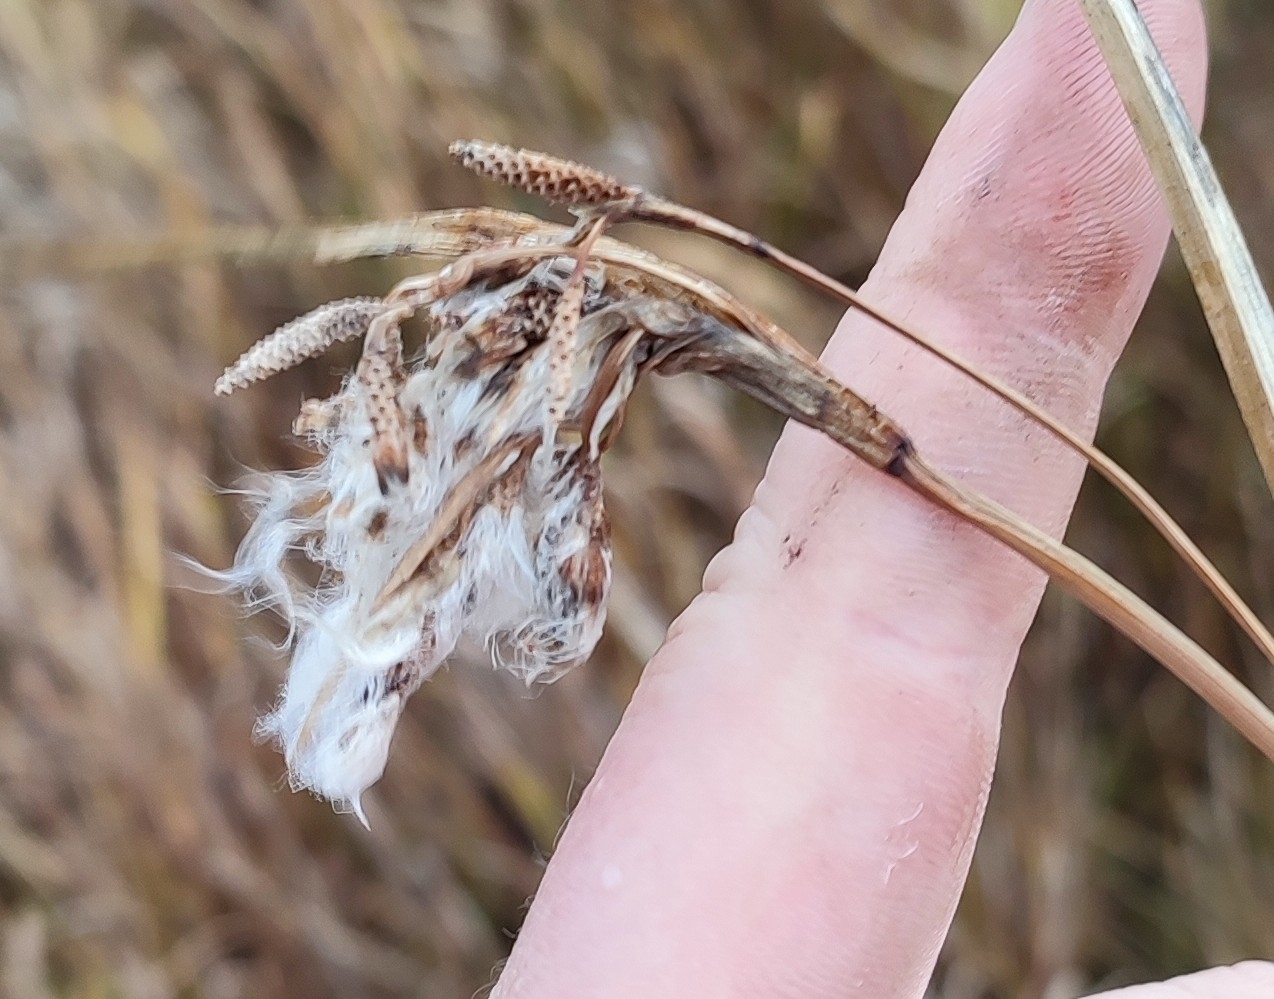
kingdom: Plantae
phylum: Tracheophyta
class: Liliopsida
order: Poales
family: Cyperaceae
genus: Eriophorum
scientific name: Eriophorum angustifolium
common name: Common cottongrass
